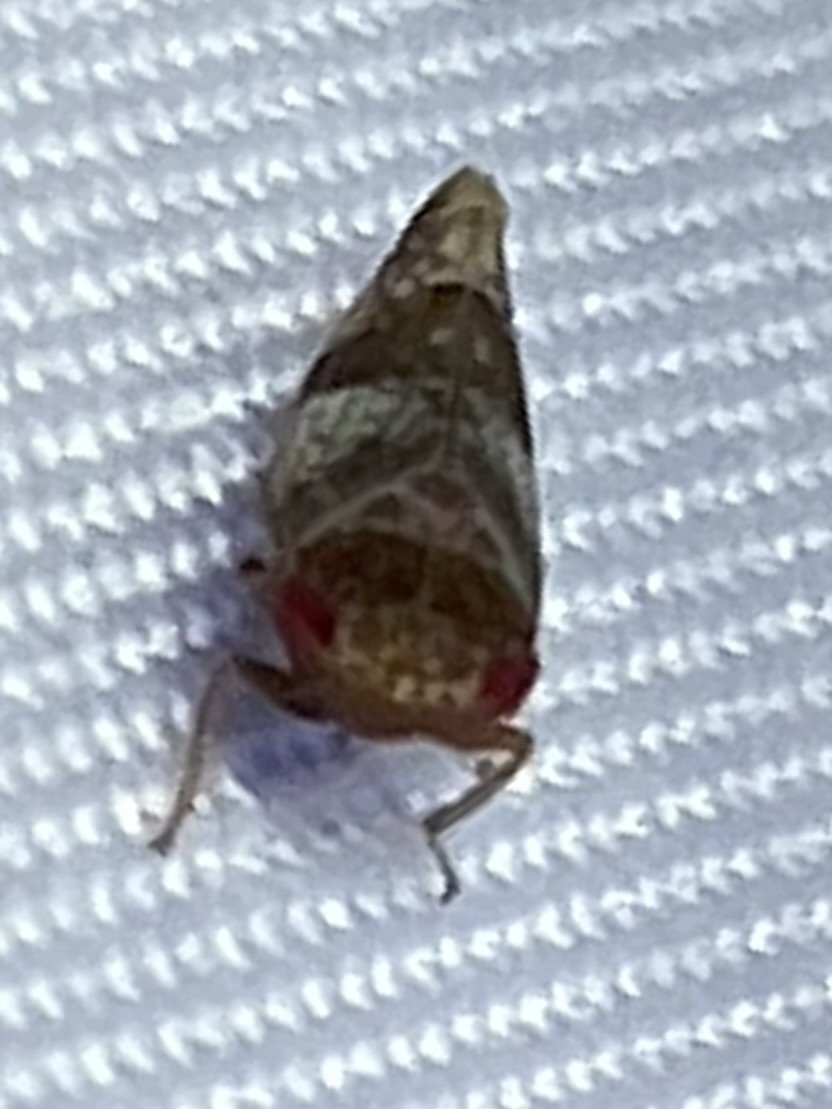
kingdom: Animalia
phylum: Arthropoda
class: Insecta
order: Hemiptera
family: Cicadellidae
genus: Norvellina
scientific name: Norvellina helenae
